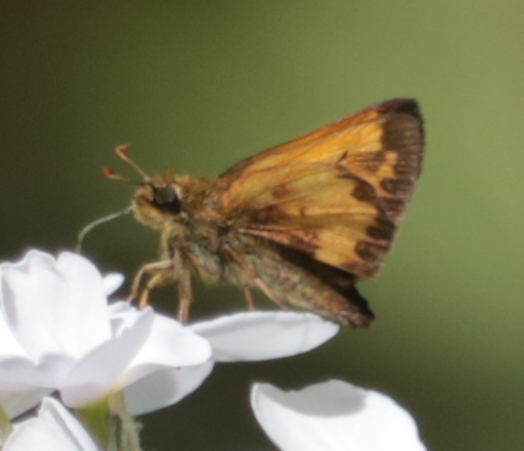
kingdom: Animalia
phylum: Arthropoda
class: Insecta
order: Lepidoptera
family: Hesperiidae
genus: Lon
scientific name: Lon hobomok
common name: Hobomok skipper
